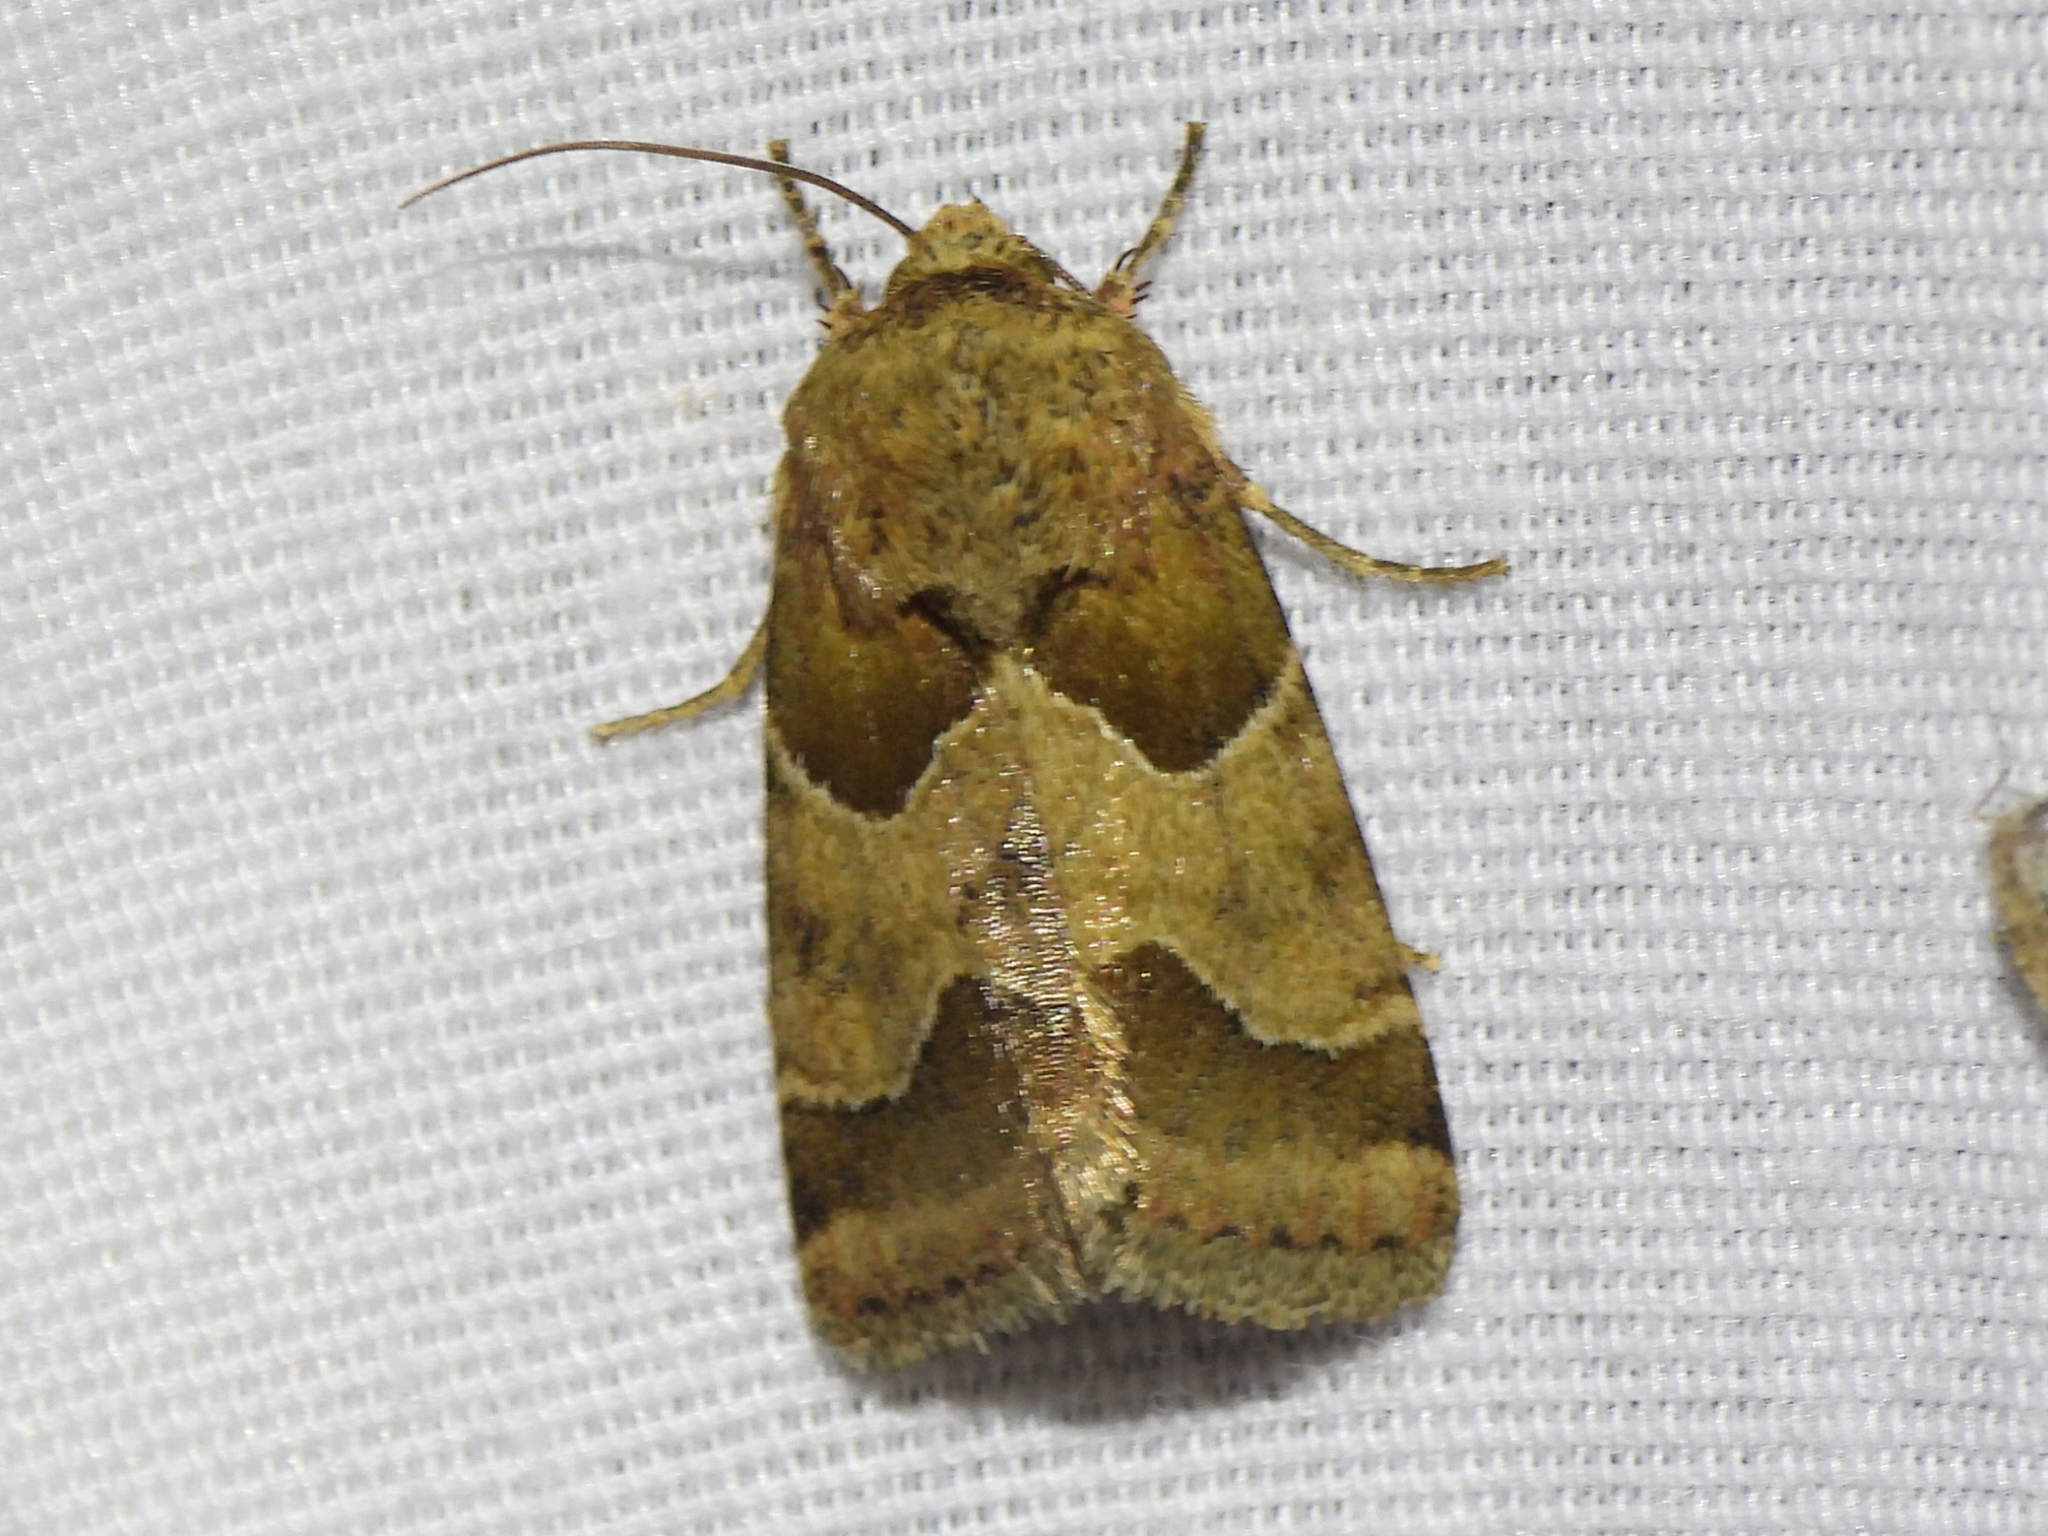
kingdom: Animalia
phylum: Arthropoda
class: Insecta
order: Lepidoptera
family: Noctuidae
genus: Schinia
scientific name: Schinia jaguarina
